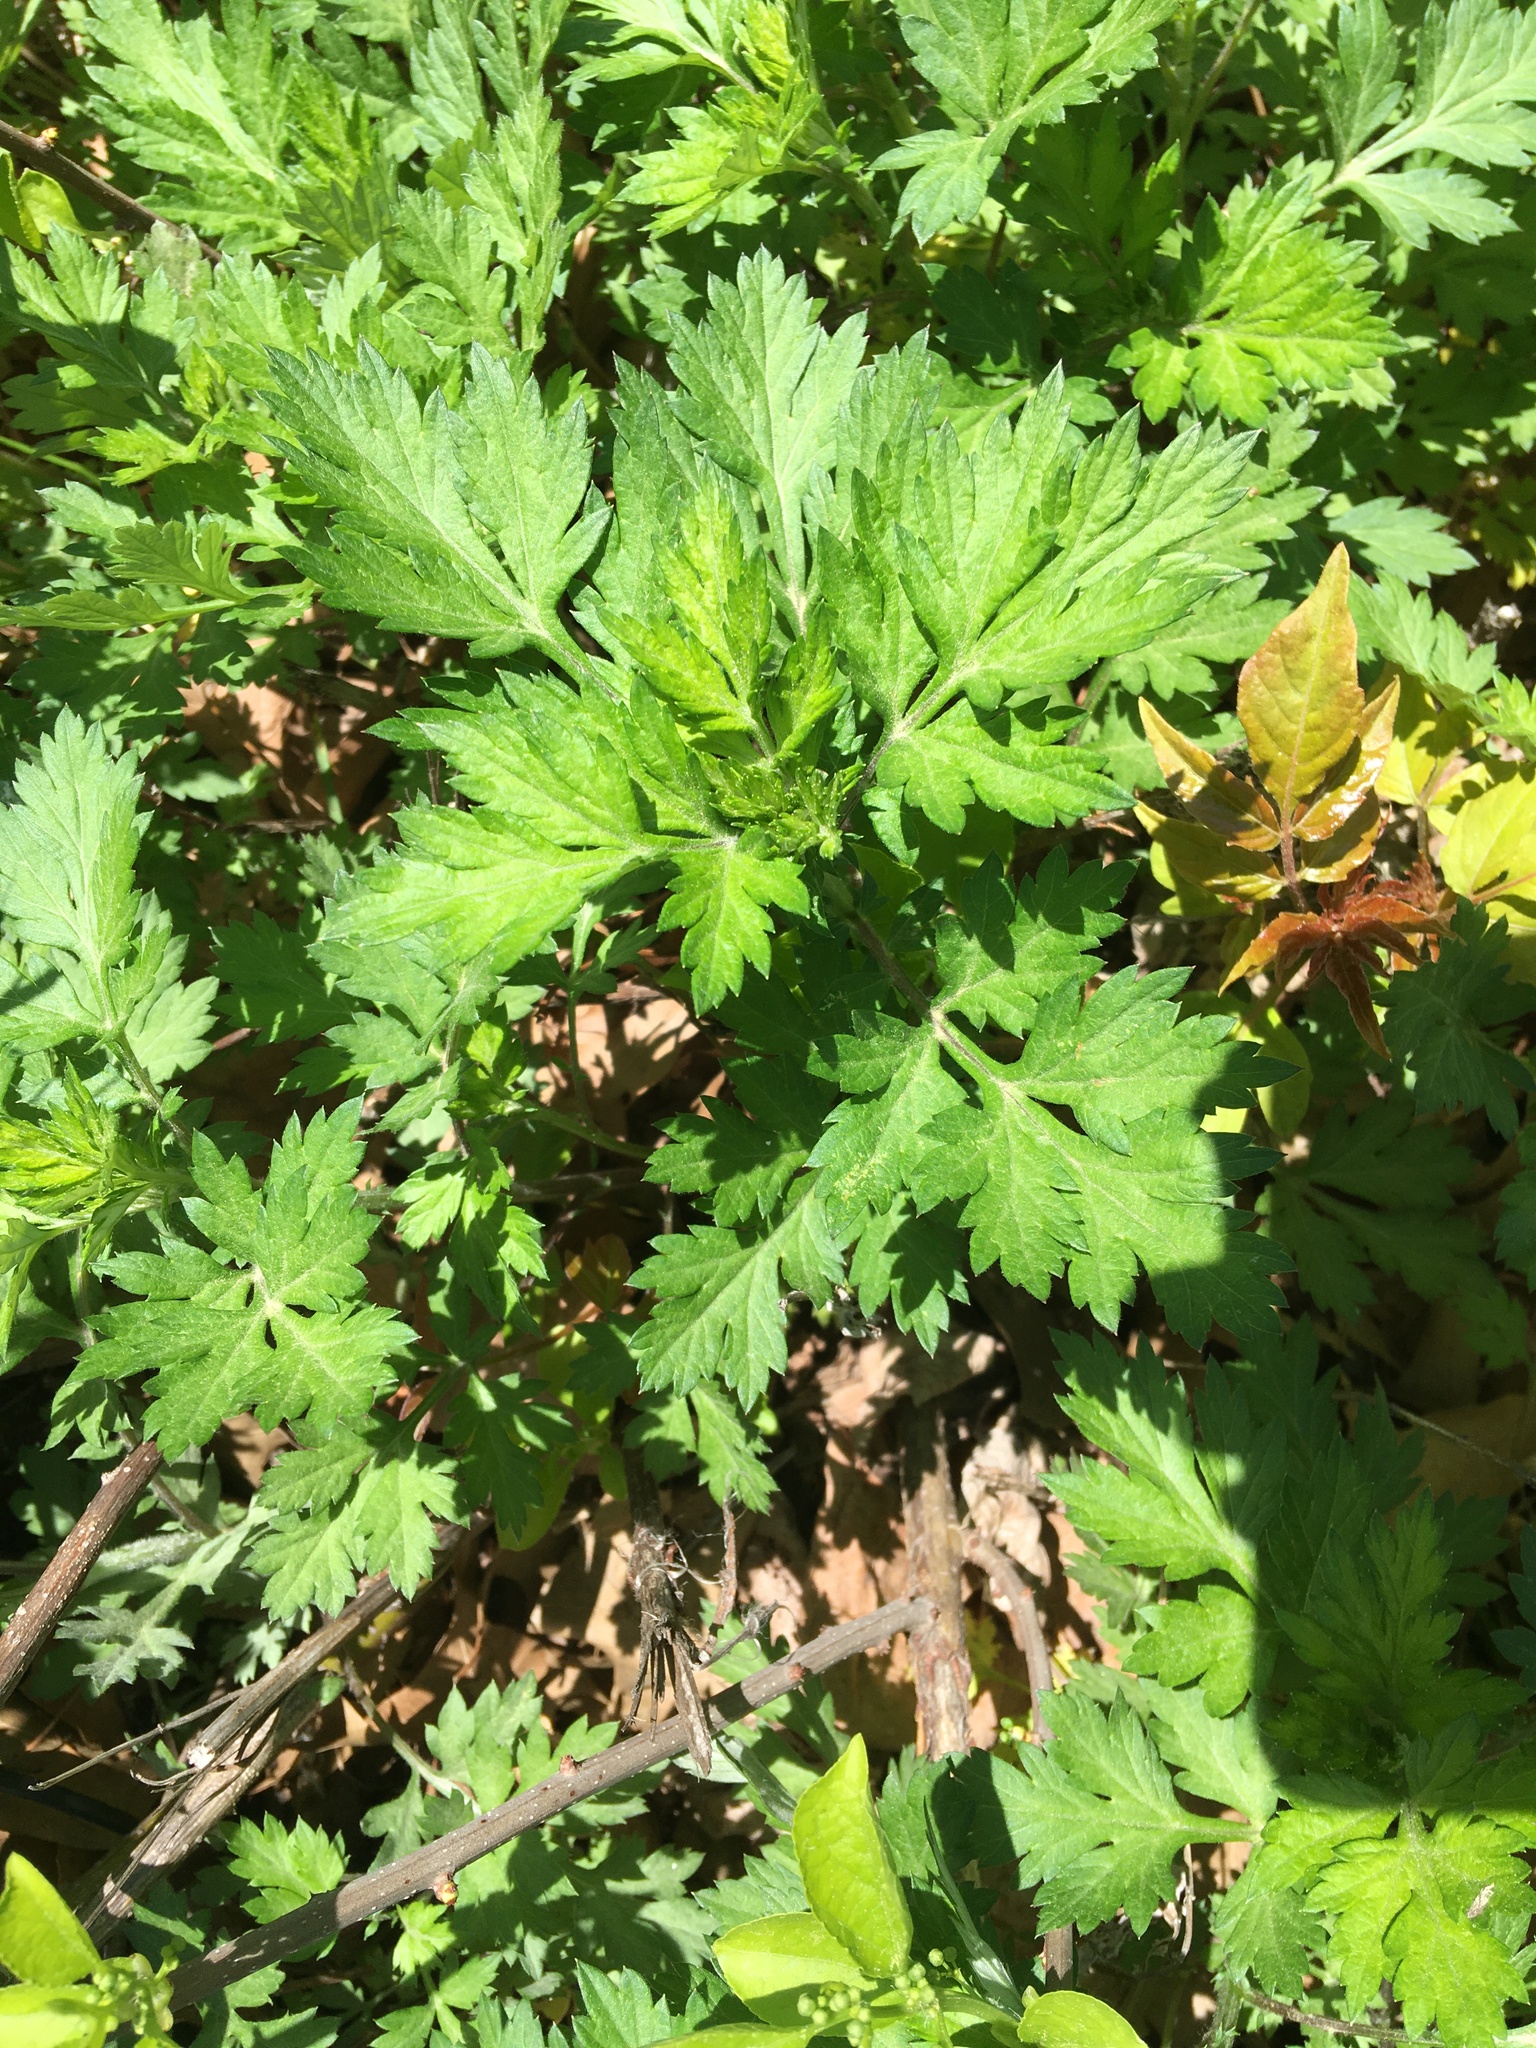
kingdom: Plantae
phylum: Tracheophyta
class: Magnoliopsida
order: Asterales
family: Asteraceae
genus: Artemisia
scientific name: Artemisia vulgaris
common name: Mugwort
